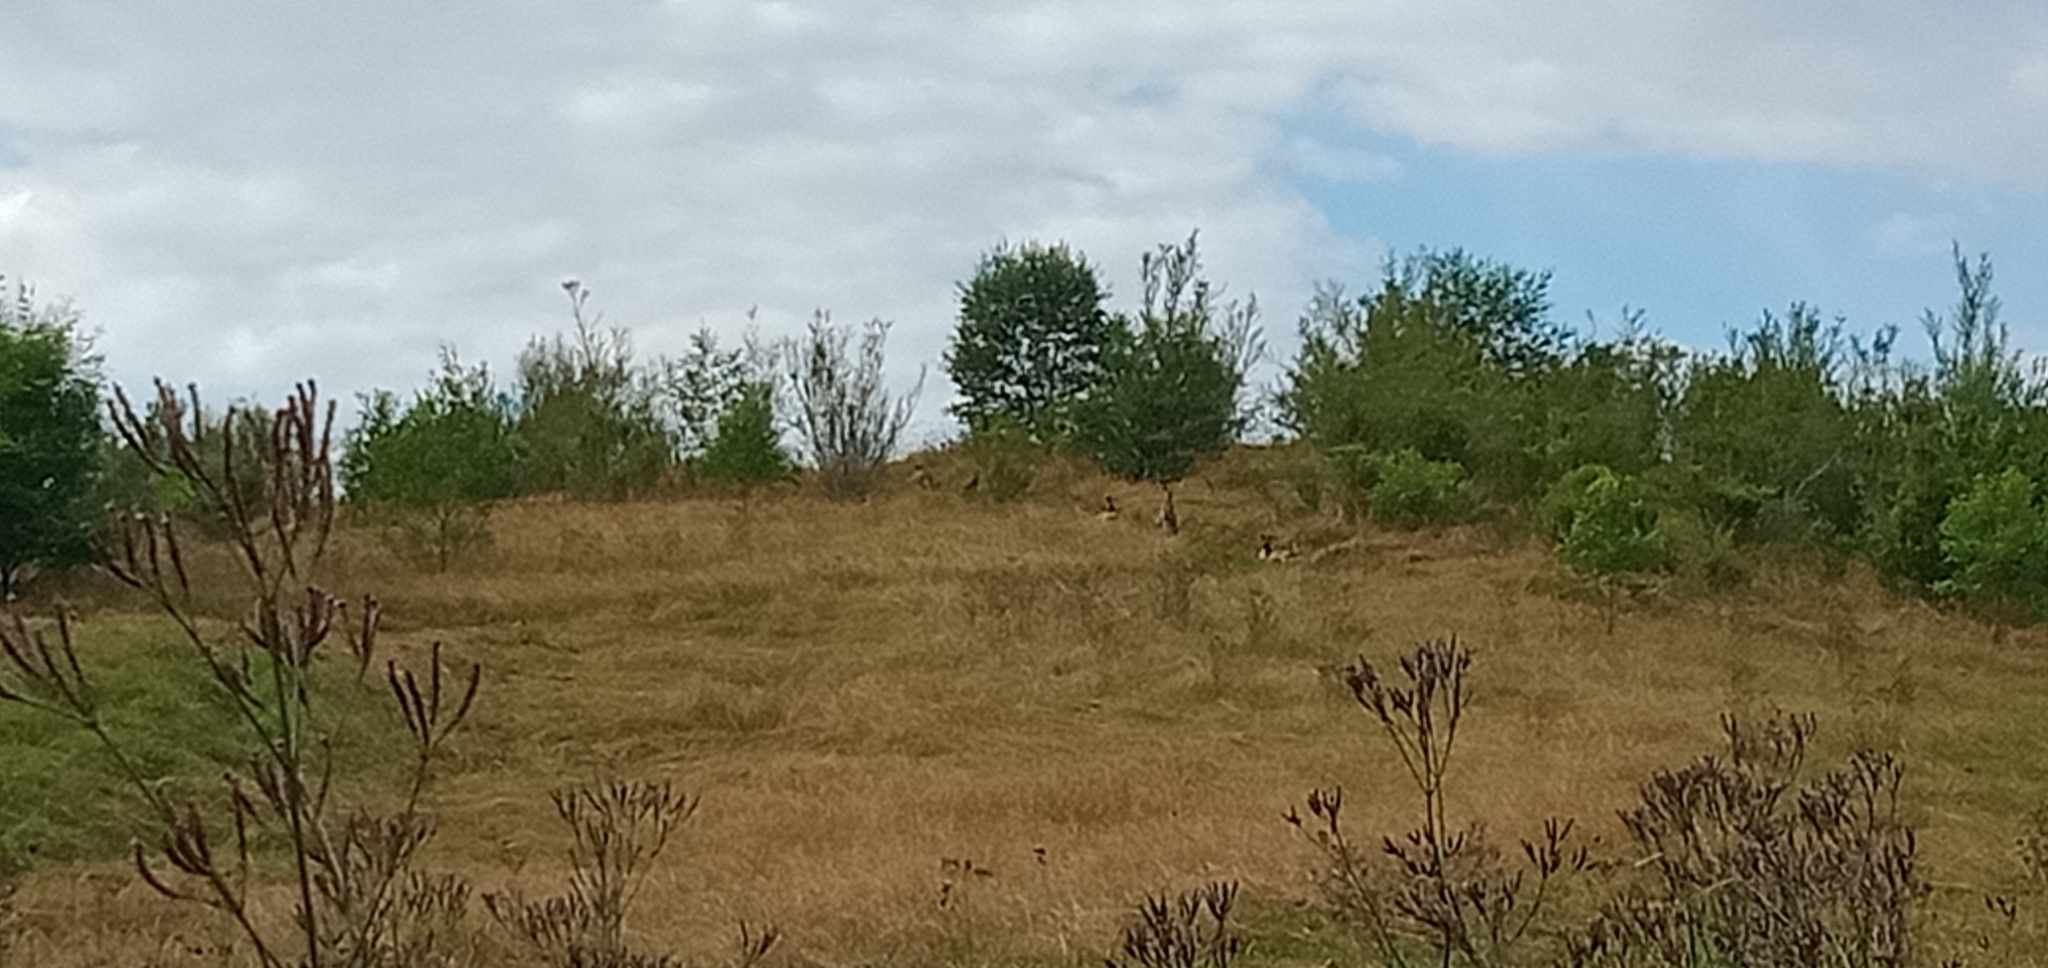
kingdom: Animalia
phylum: Chordata
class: Mammalia
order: Diprotodontia
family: Macropodidae
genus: Macropus
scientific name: Macropus giganteus
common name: Eastern grey kangaroo
